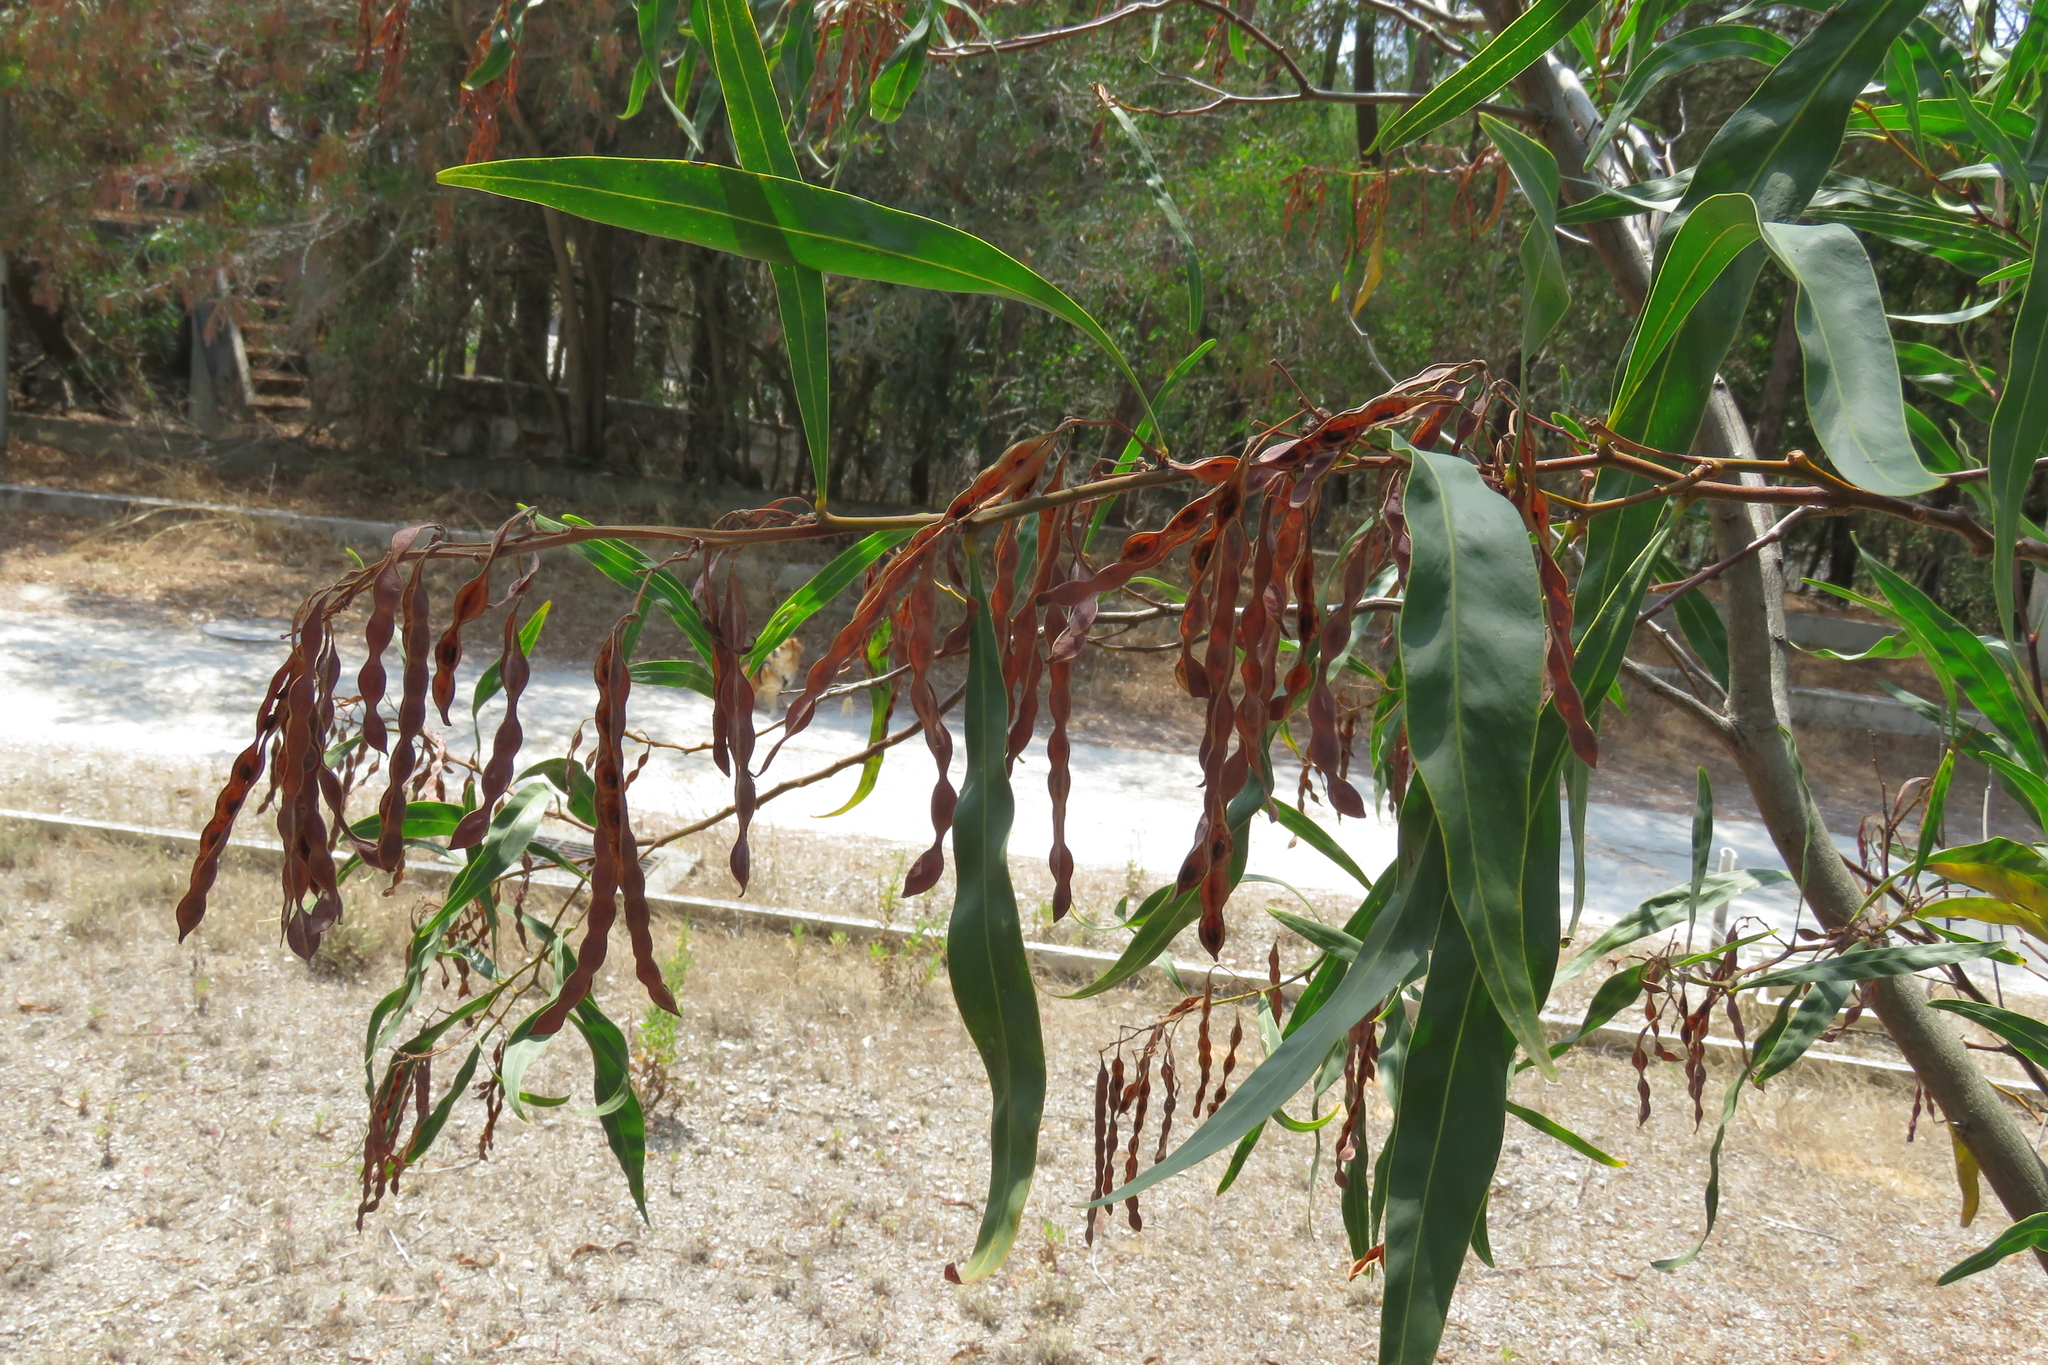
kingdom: Plantae
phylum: Tracheophyta
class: Magnoliopsida
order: Fabales
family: Fabaceae
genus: Acacia
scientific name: Acacia saligna
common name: Orange wattle
